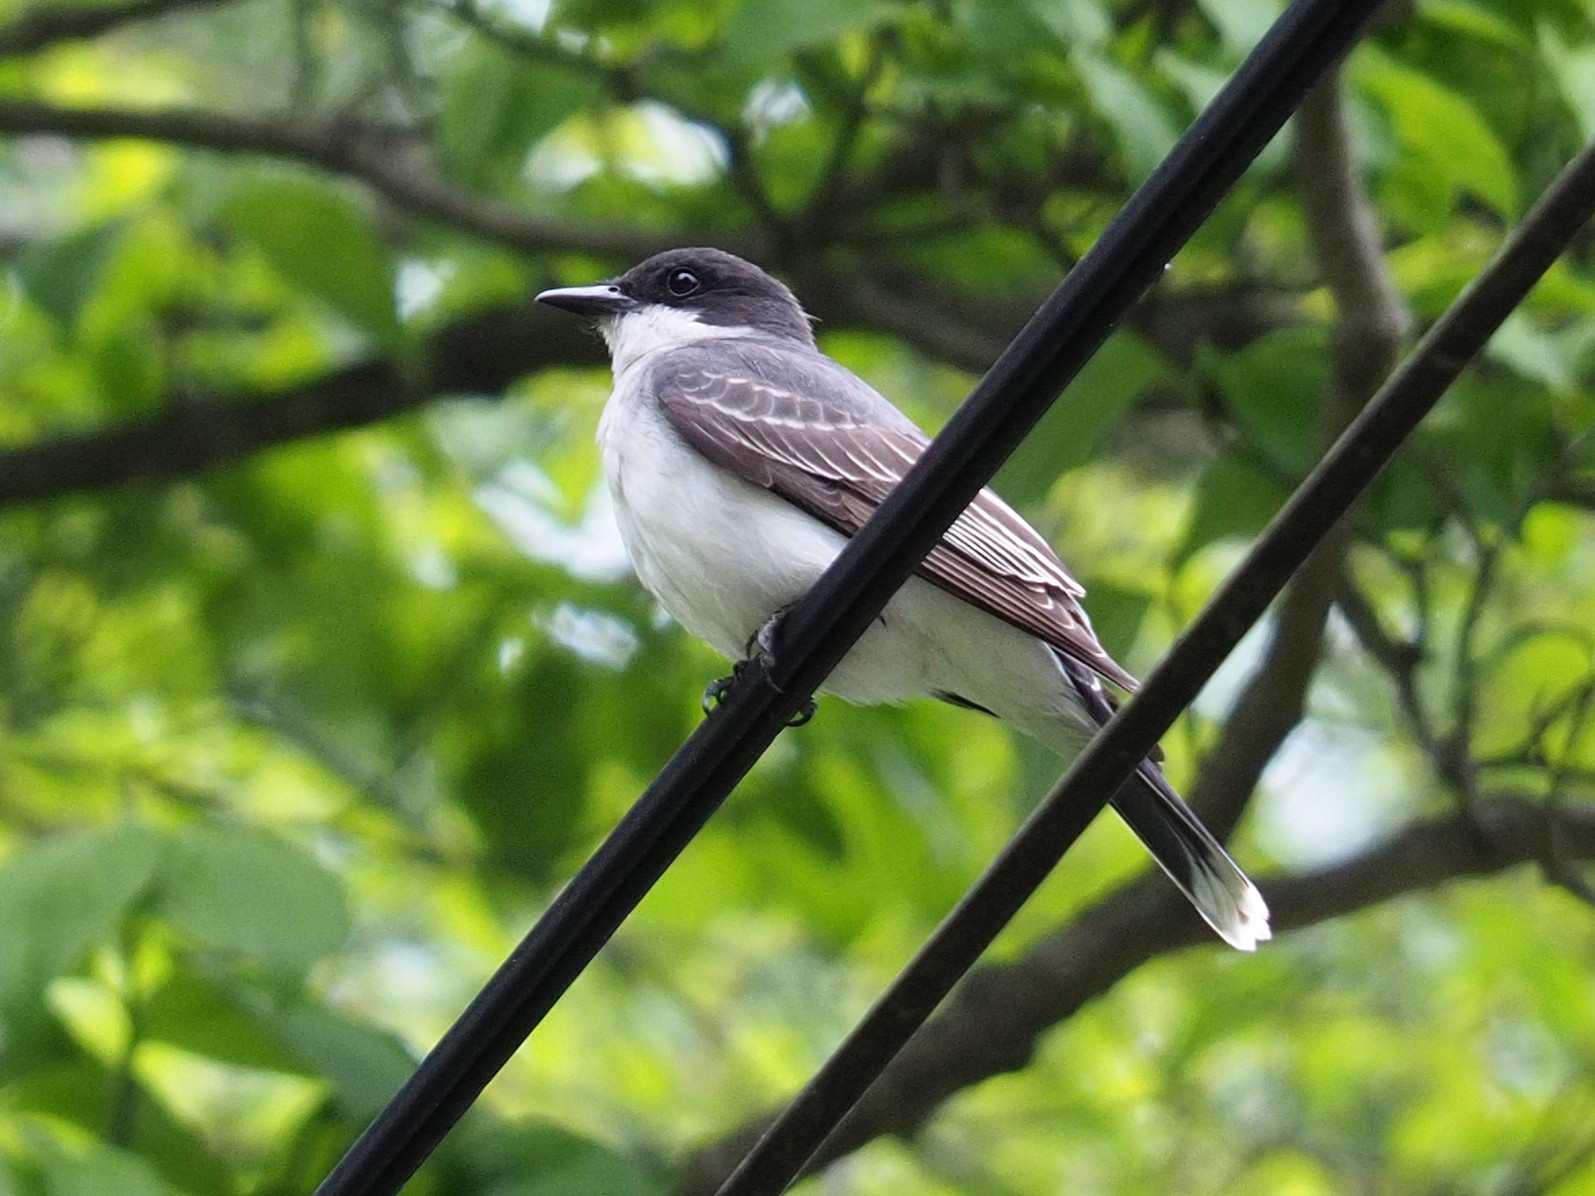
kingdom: Animalia
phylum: Chordata
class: Aves
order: Passeriformes
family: Tyrannidae
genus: Tyrannus
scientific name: Tyrannus tyrannus
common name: Eastern kingbird
